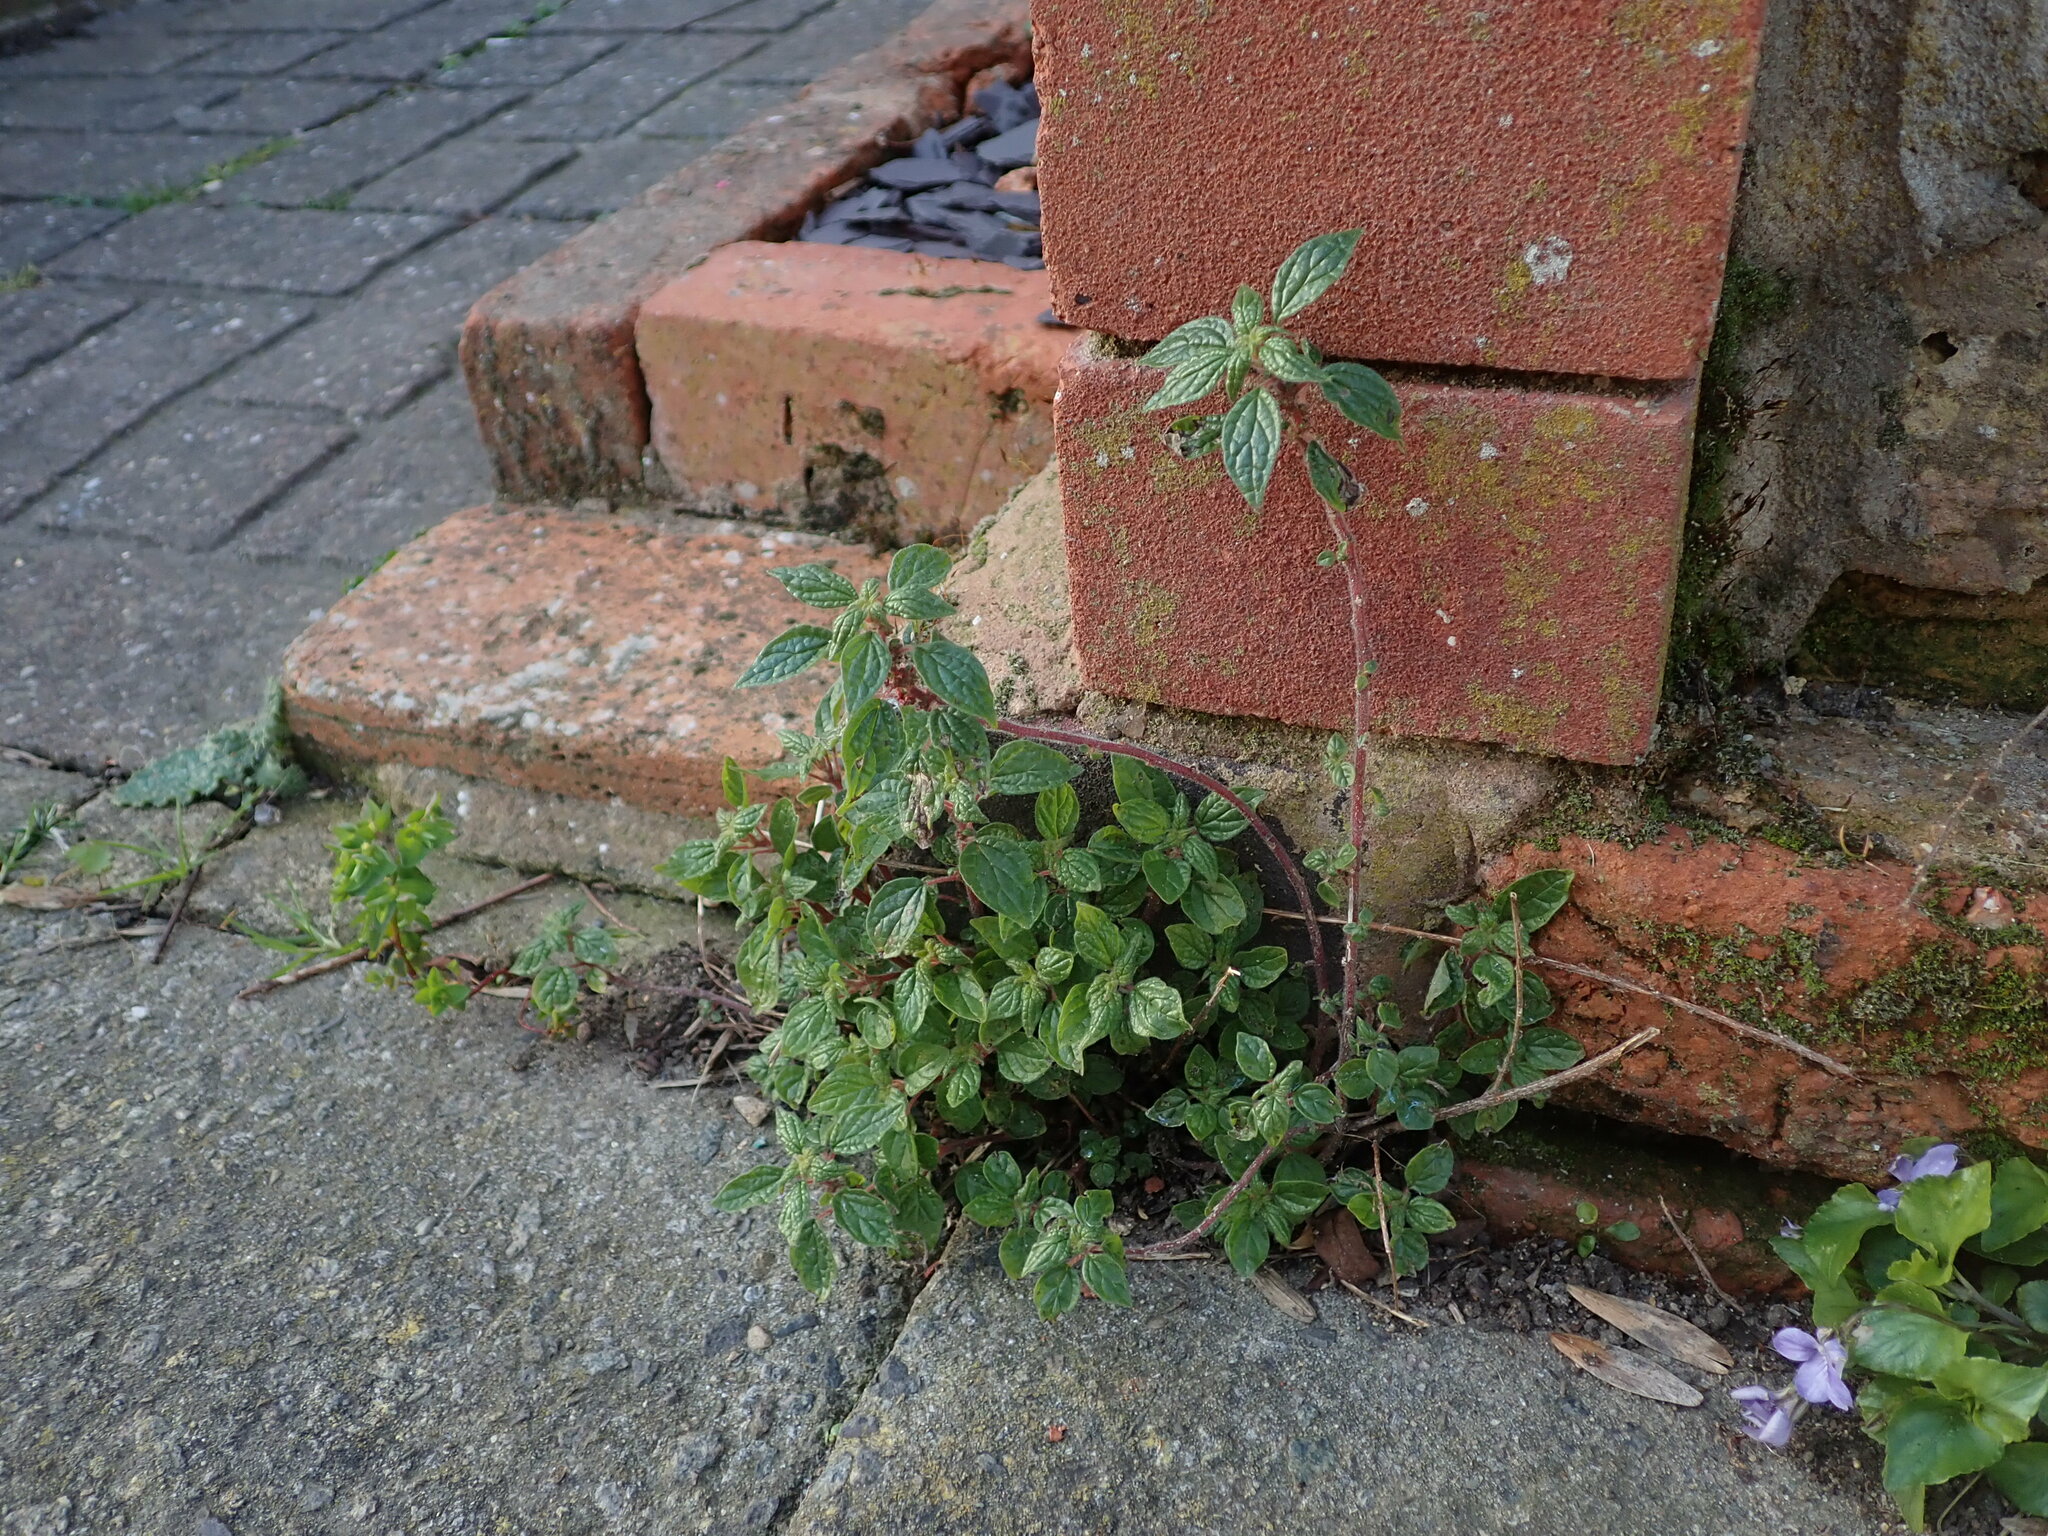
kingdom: Plantae
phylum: Tracheophyta
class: Magnoliopsida
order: Rosales
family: Urticaceae
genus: Parietaria
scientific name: Parietaria judaica
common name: Pellitory-of-the-wall
